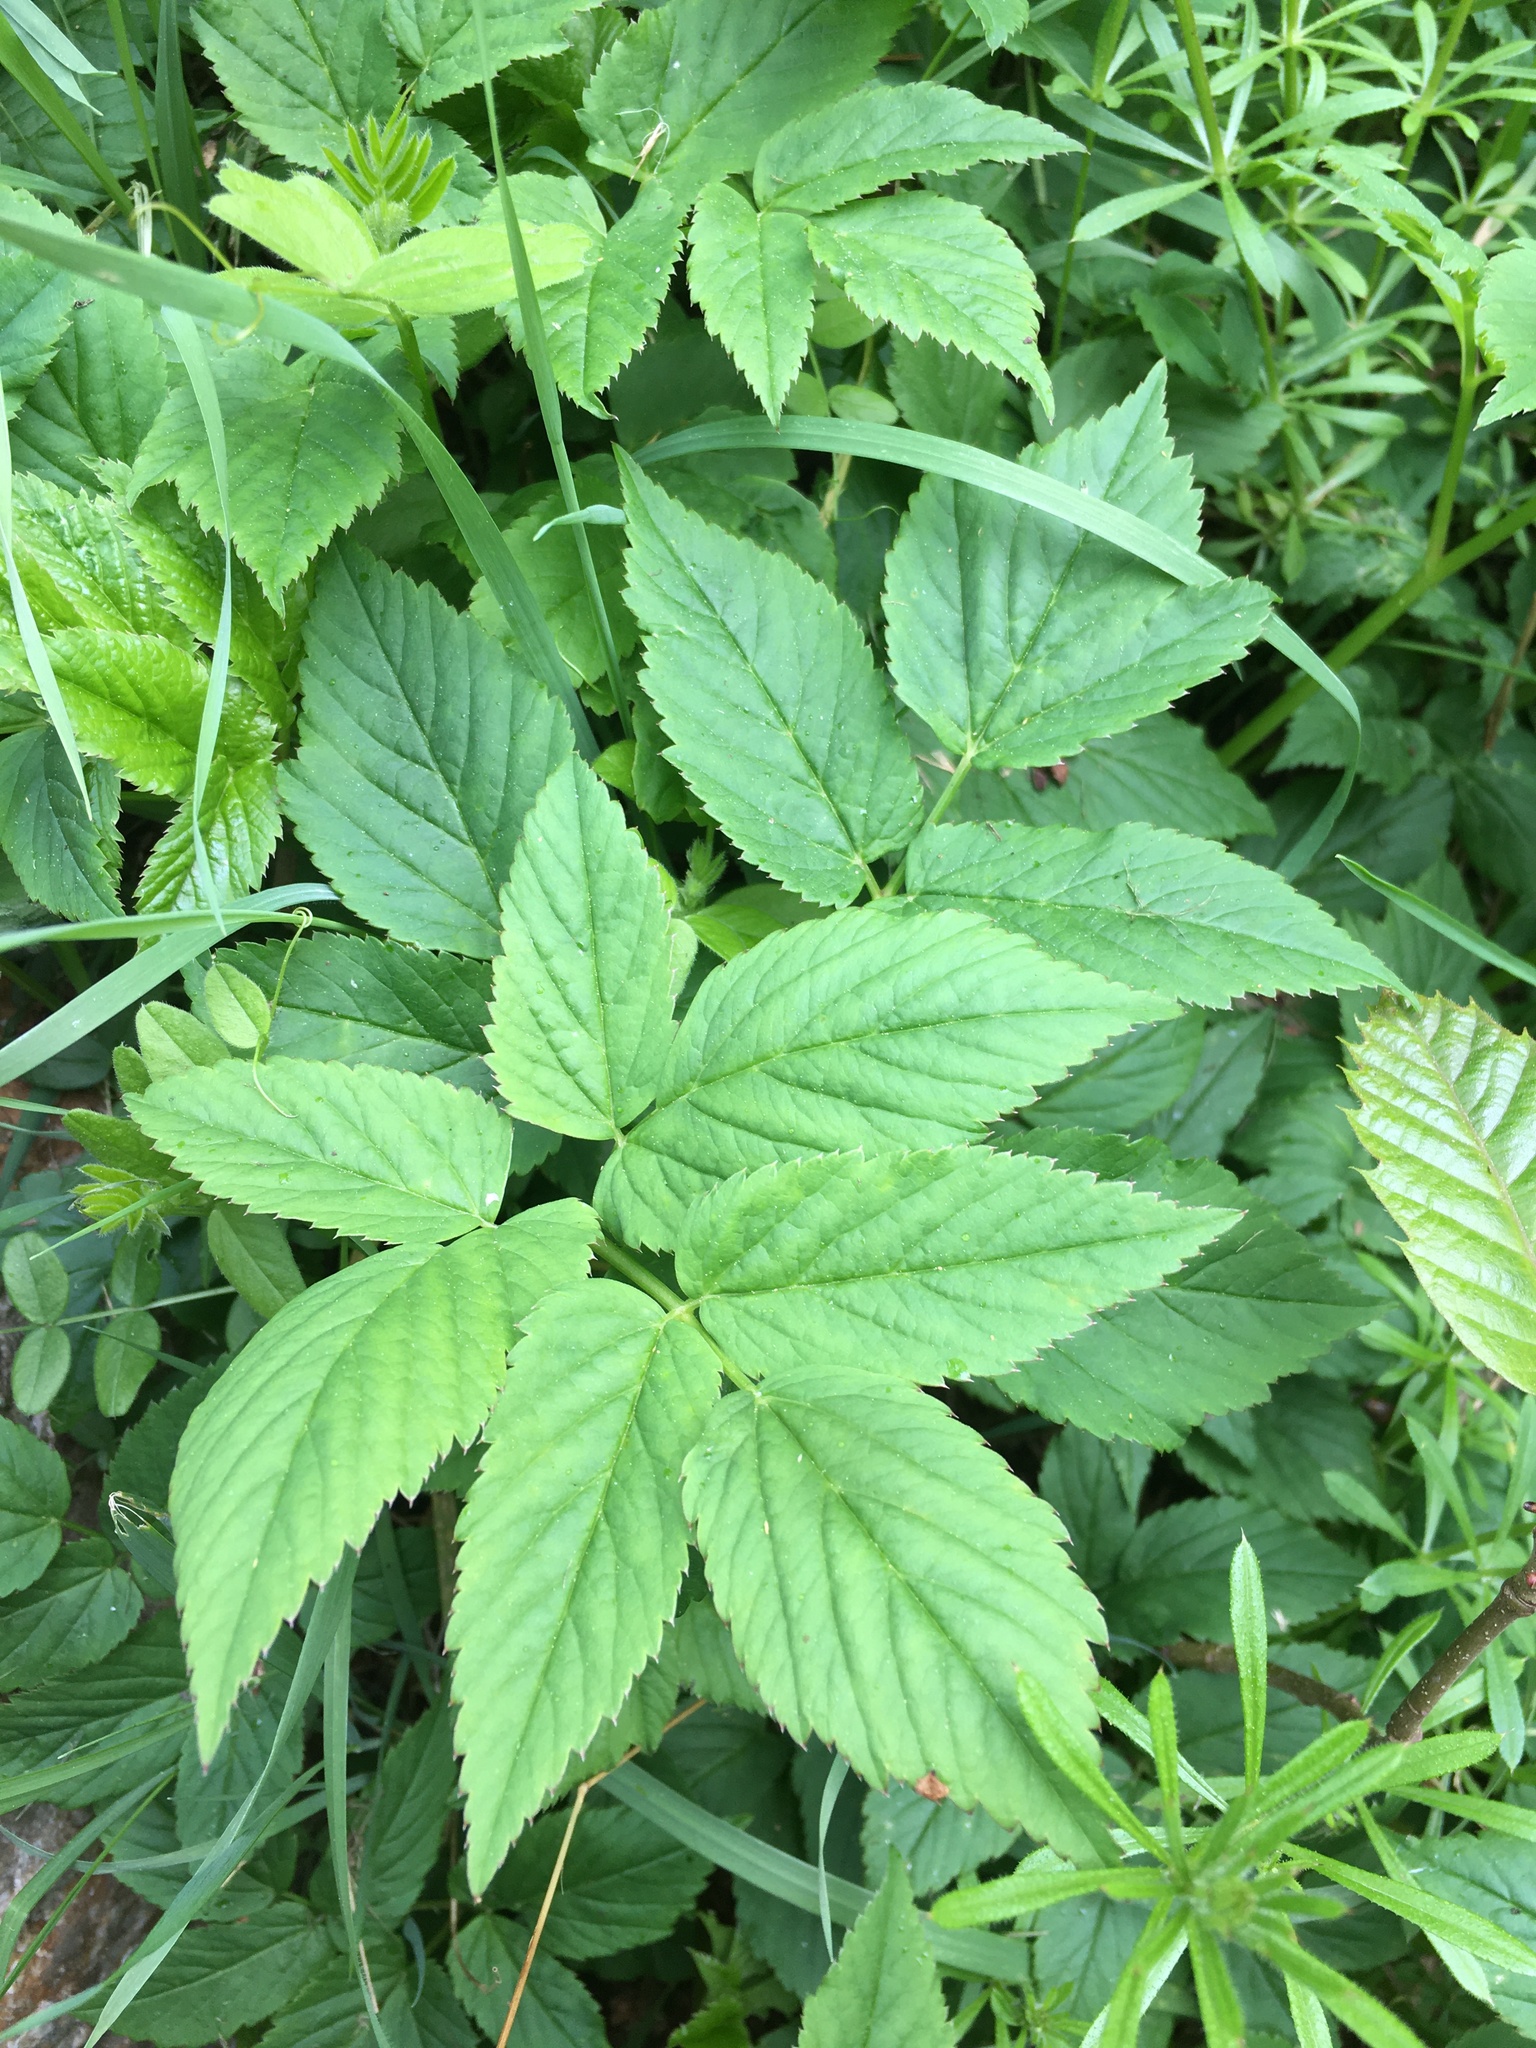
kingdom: Plantae
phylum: Tracheophyta
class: Magnoliopsida
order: Apiales
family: Apiaceae
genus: Aegopodium
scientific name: Aegopodium podagraria
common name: Ground-elder
